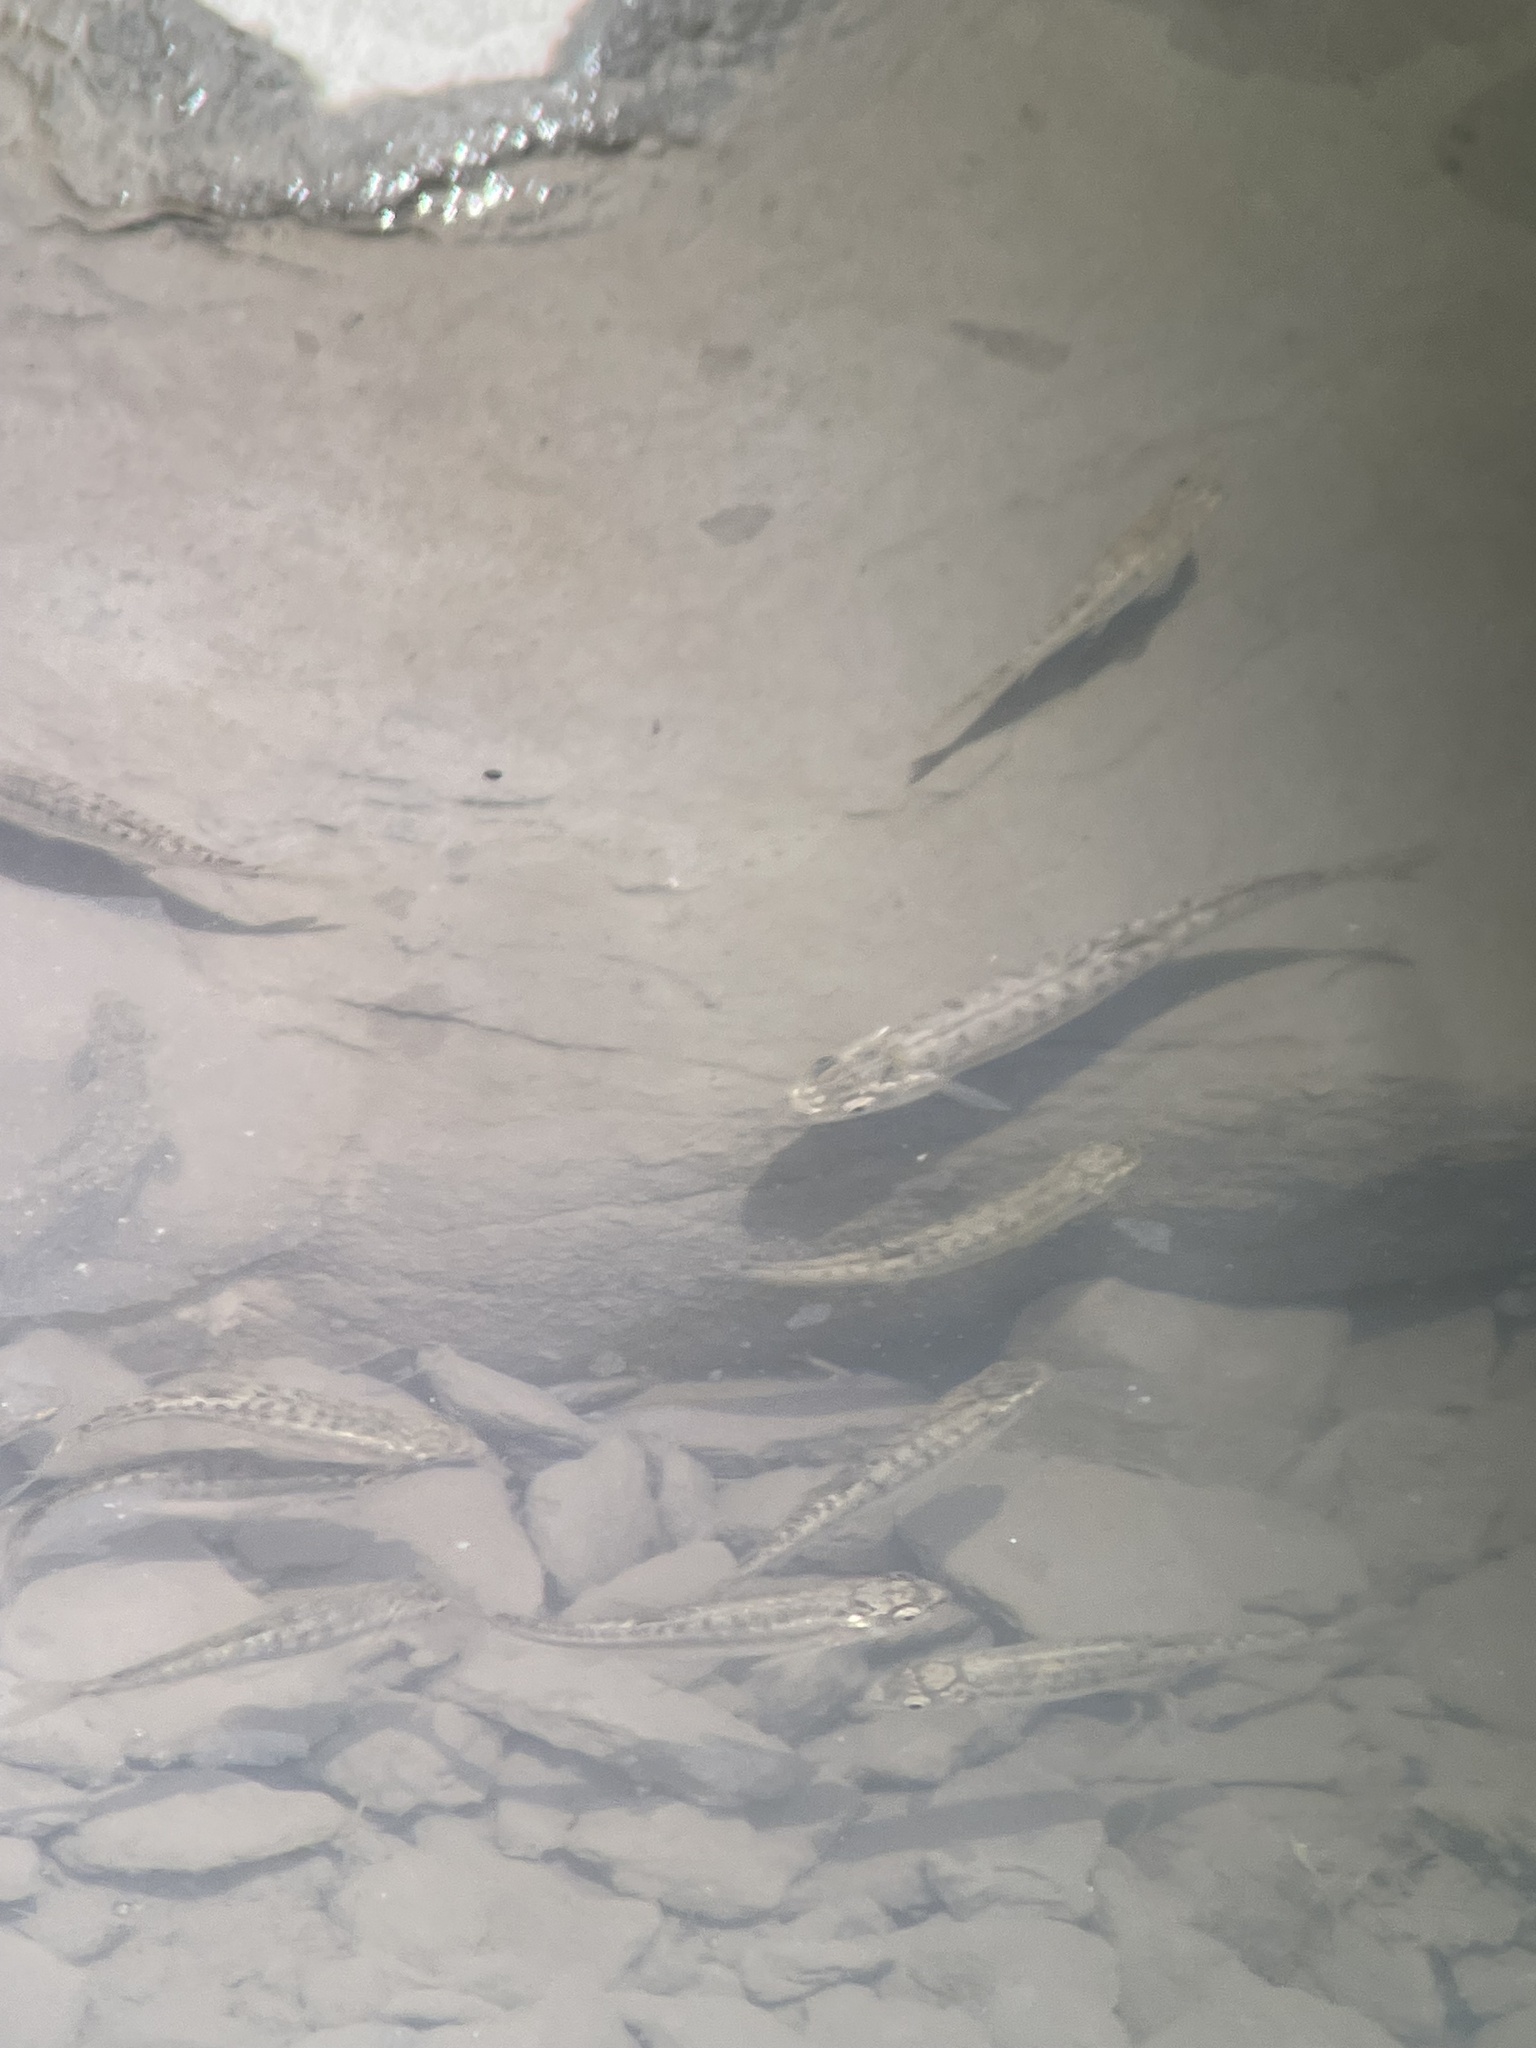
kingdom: Animalia
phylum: Chordata
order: Cypriniformes
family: Cyprinidae
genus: Phoxinus
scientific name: Phoxinus
